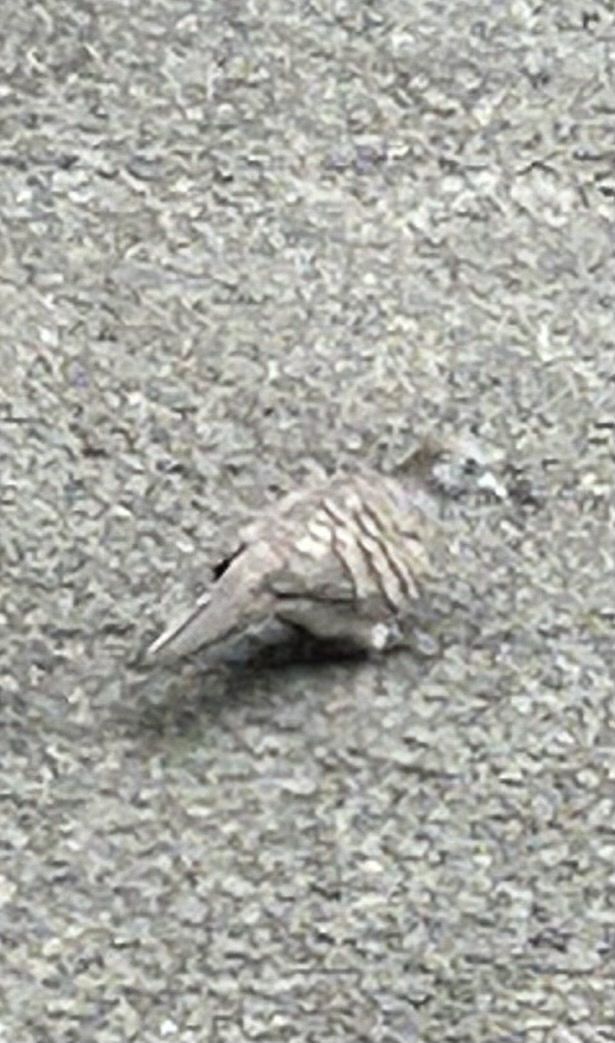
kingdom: Animalia
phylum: Chordata
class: Aves
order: Columbiformes
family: Columbidae
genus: Geopelia
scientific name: Geopelia striata
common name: Zebra dove
